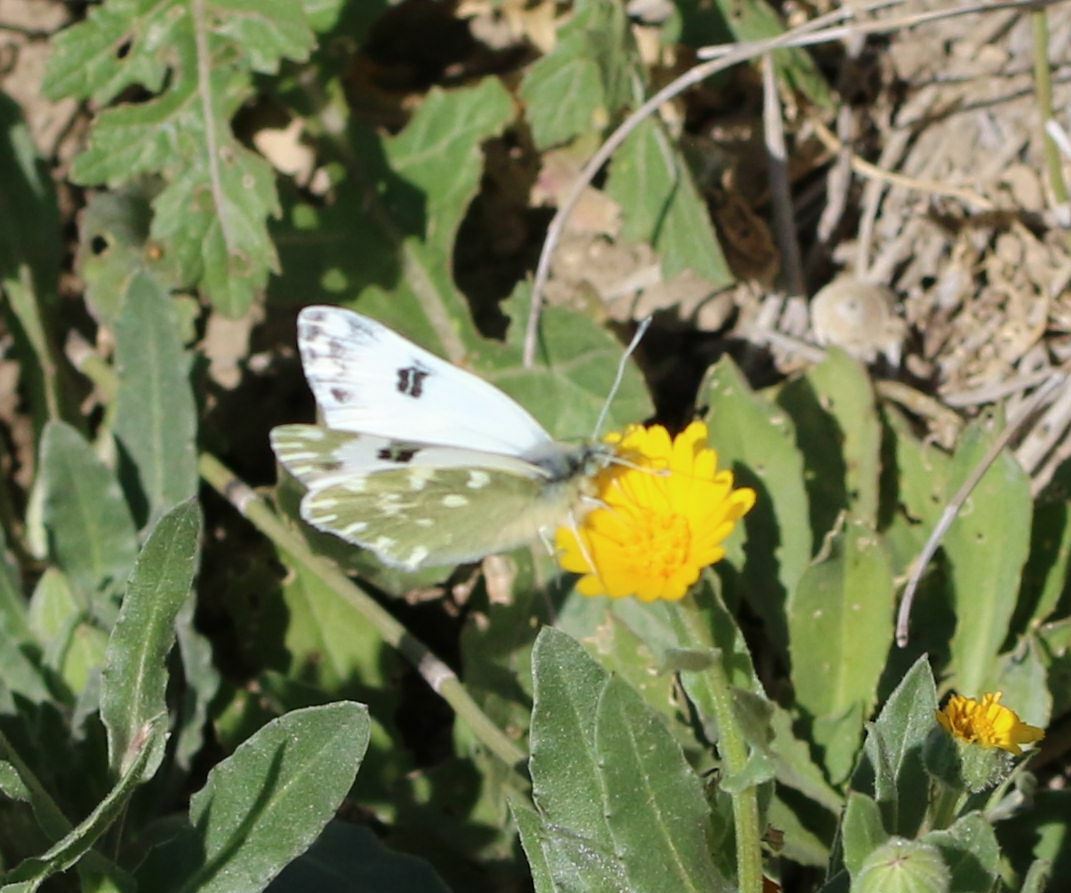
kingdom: Animalia
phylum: Arthropoda
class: Insecta
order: Lepidoptera
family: Pieridae
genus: Pontia
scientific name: Pontia daplidice
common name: Bath white
